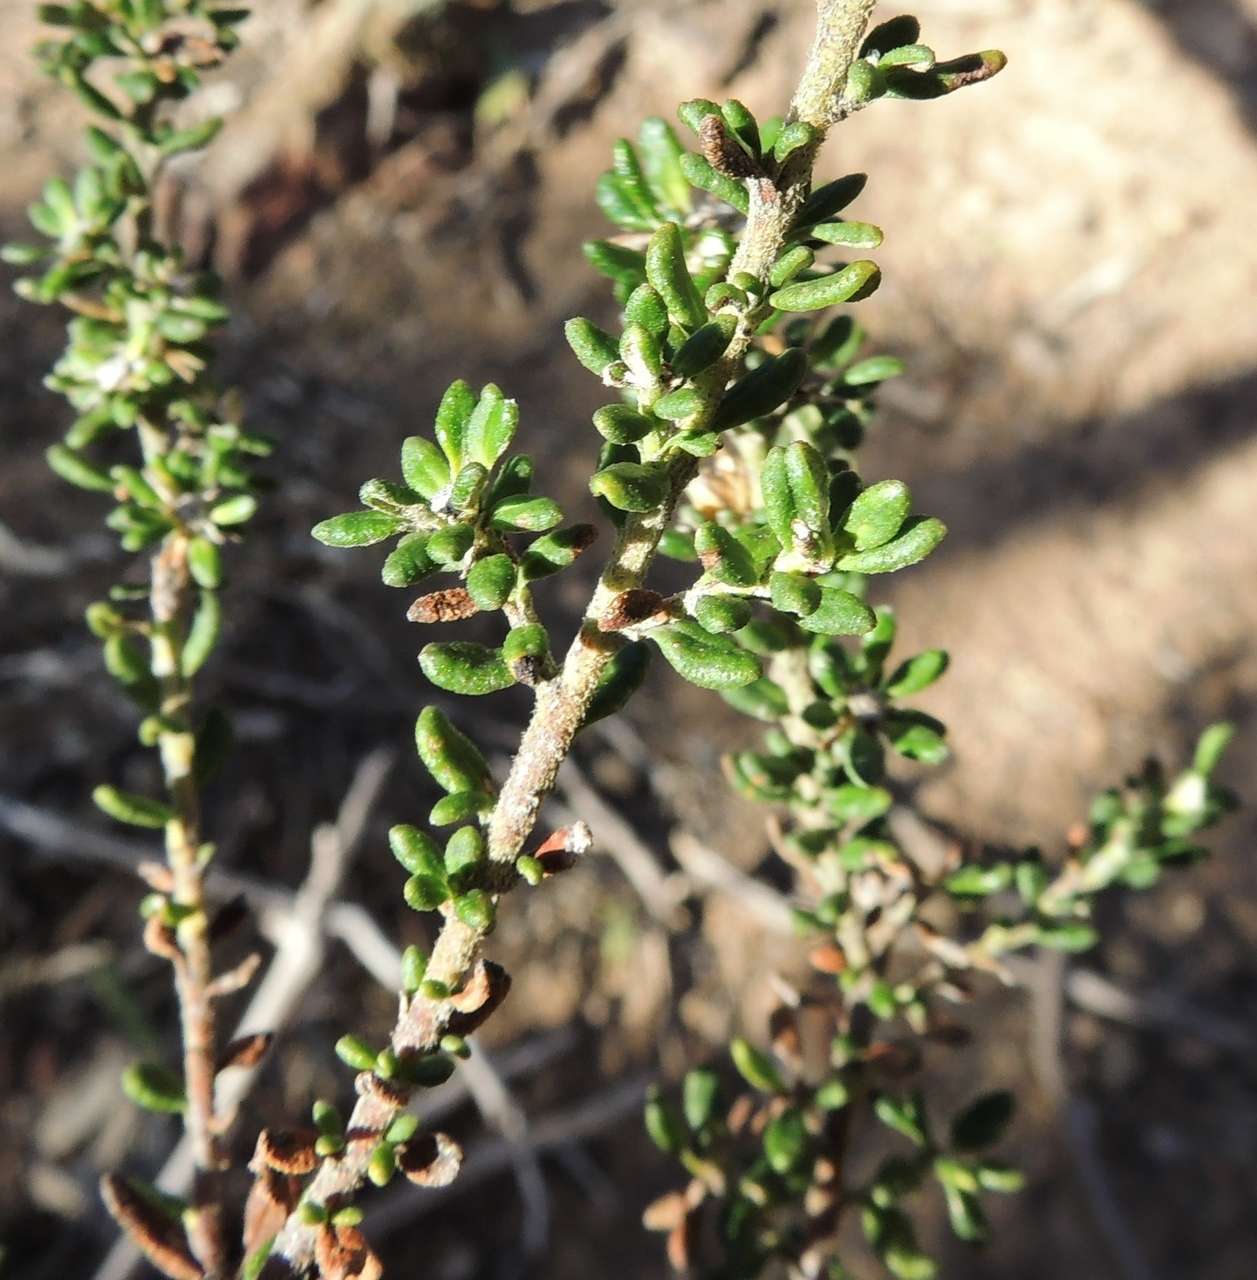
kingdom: Plantae
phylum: Tracheophyta
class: Magnoliopsida
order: Asterales
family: Asteraceae
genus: Olearia
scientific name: Olearia minor
